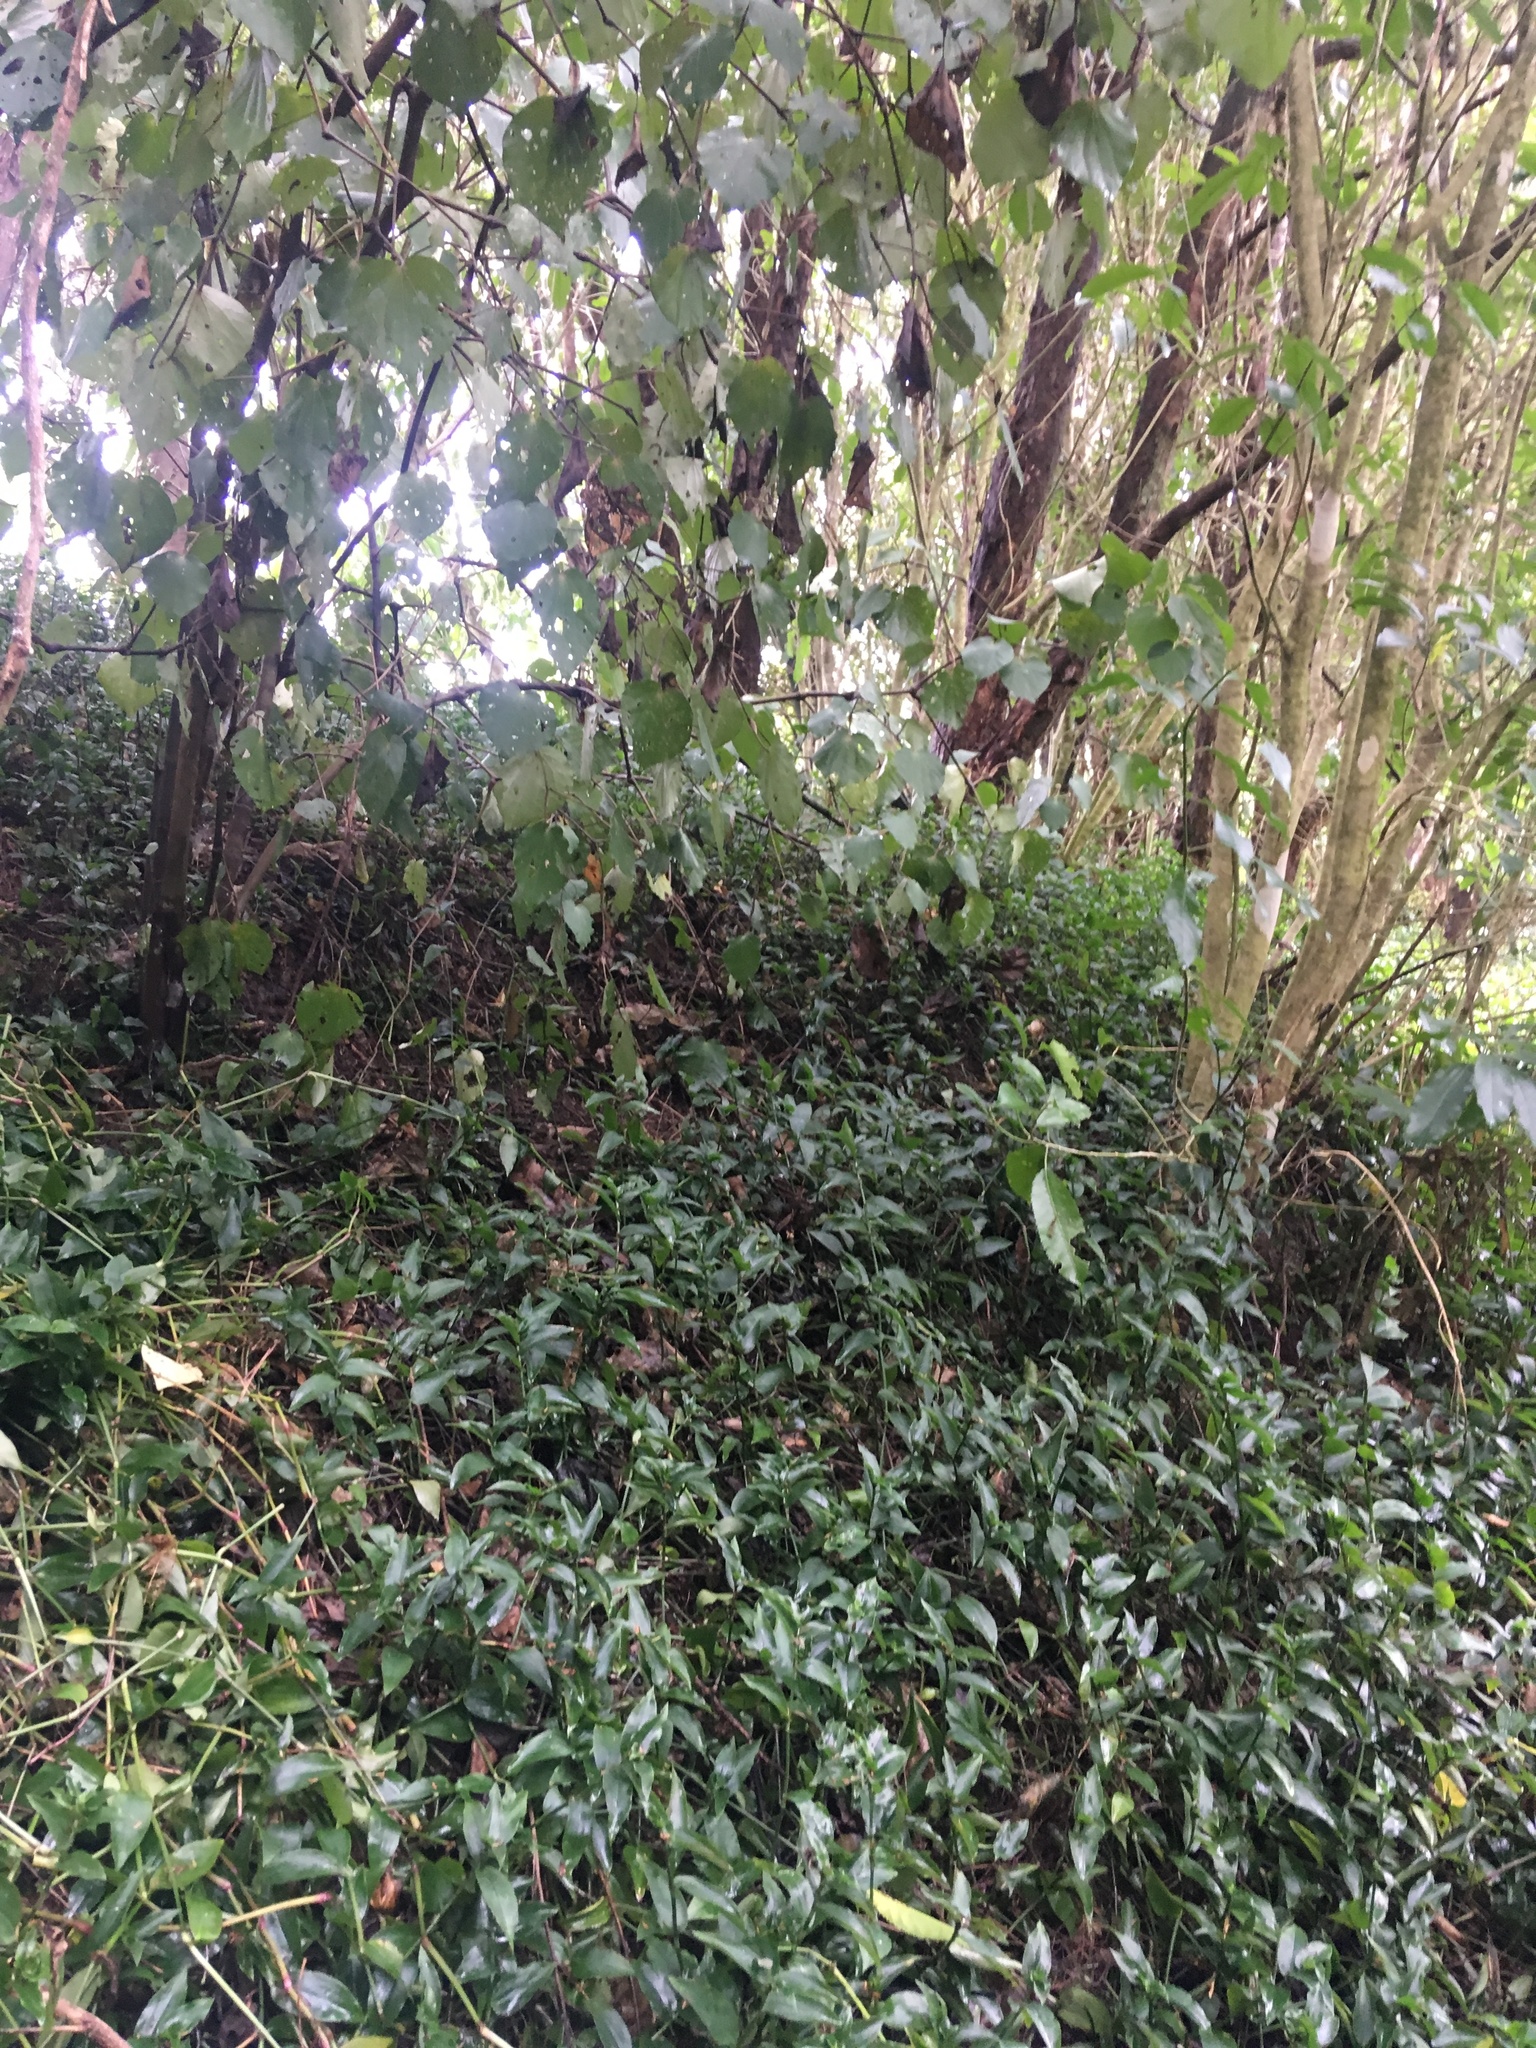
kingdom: Plantae
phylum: Tracheophyta
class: Liliopsida
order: Commelinales
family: Commelinaceae
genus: Tradescantia
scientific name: Tradescantia fluminensis
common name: Wandering-jew
